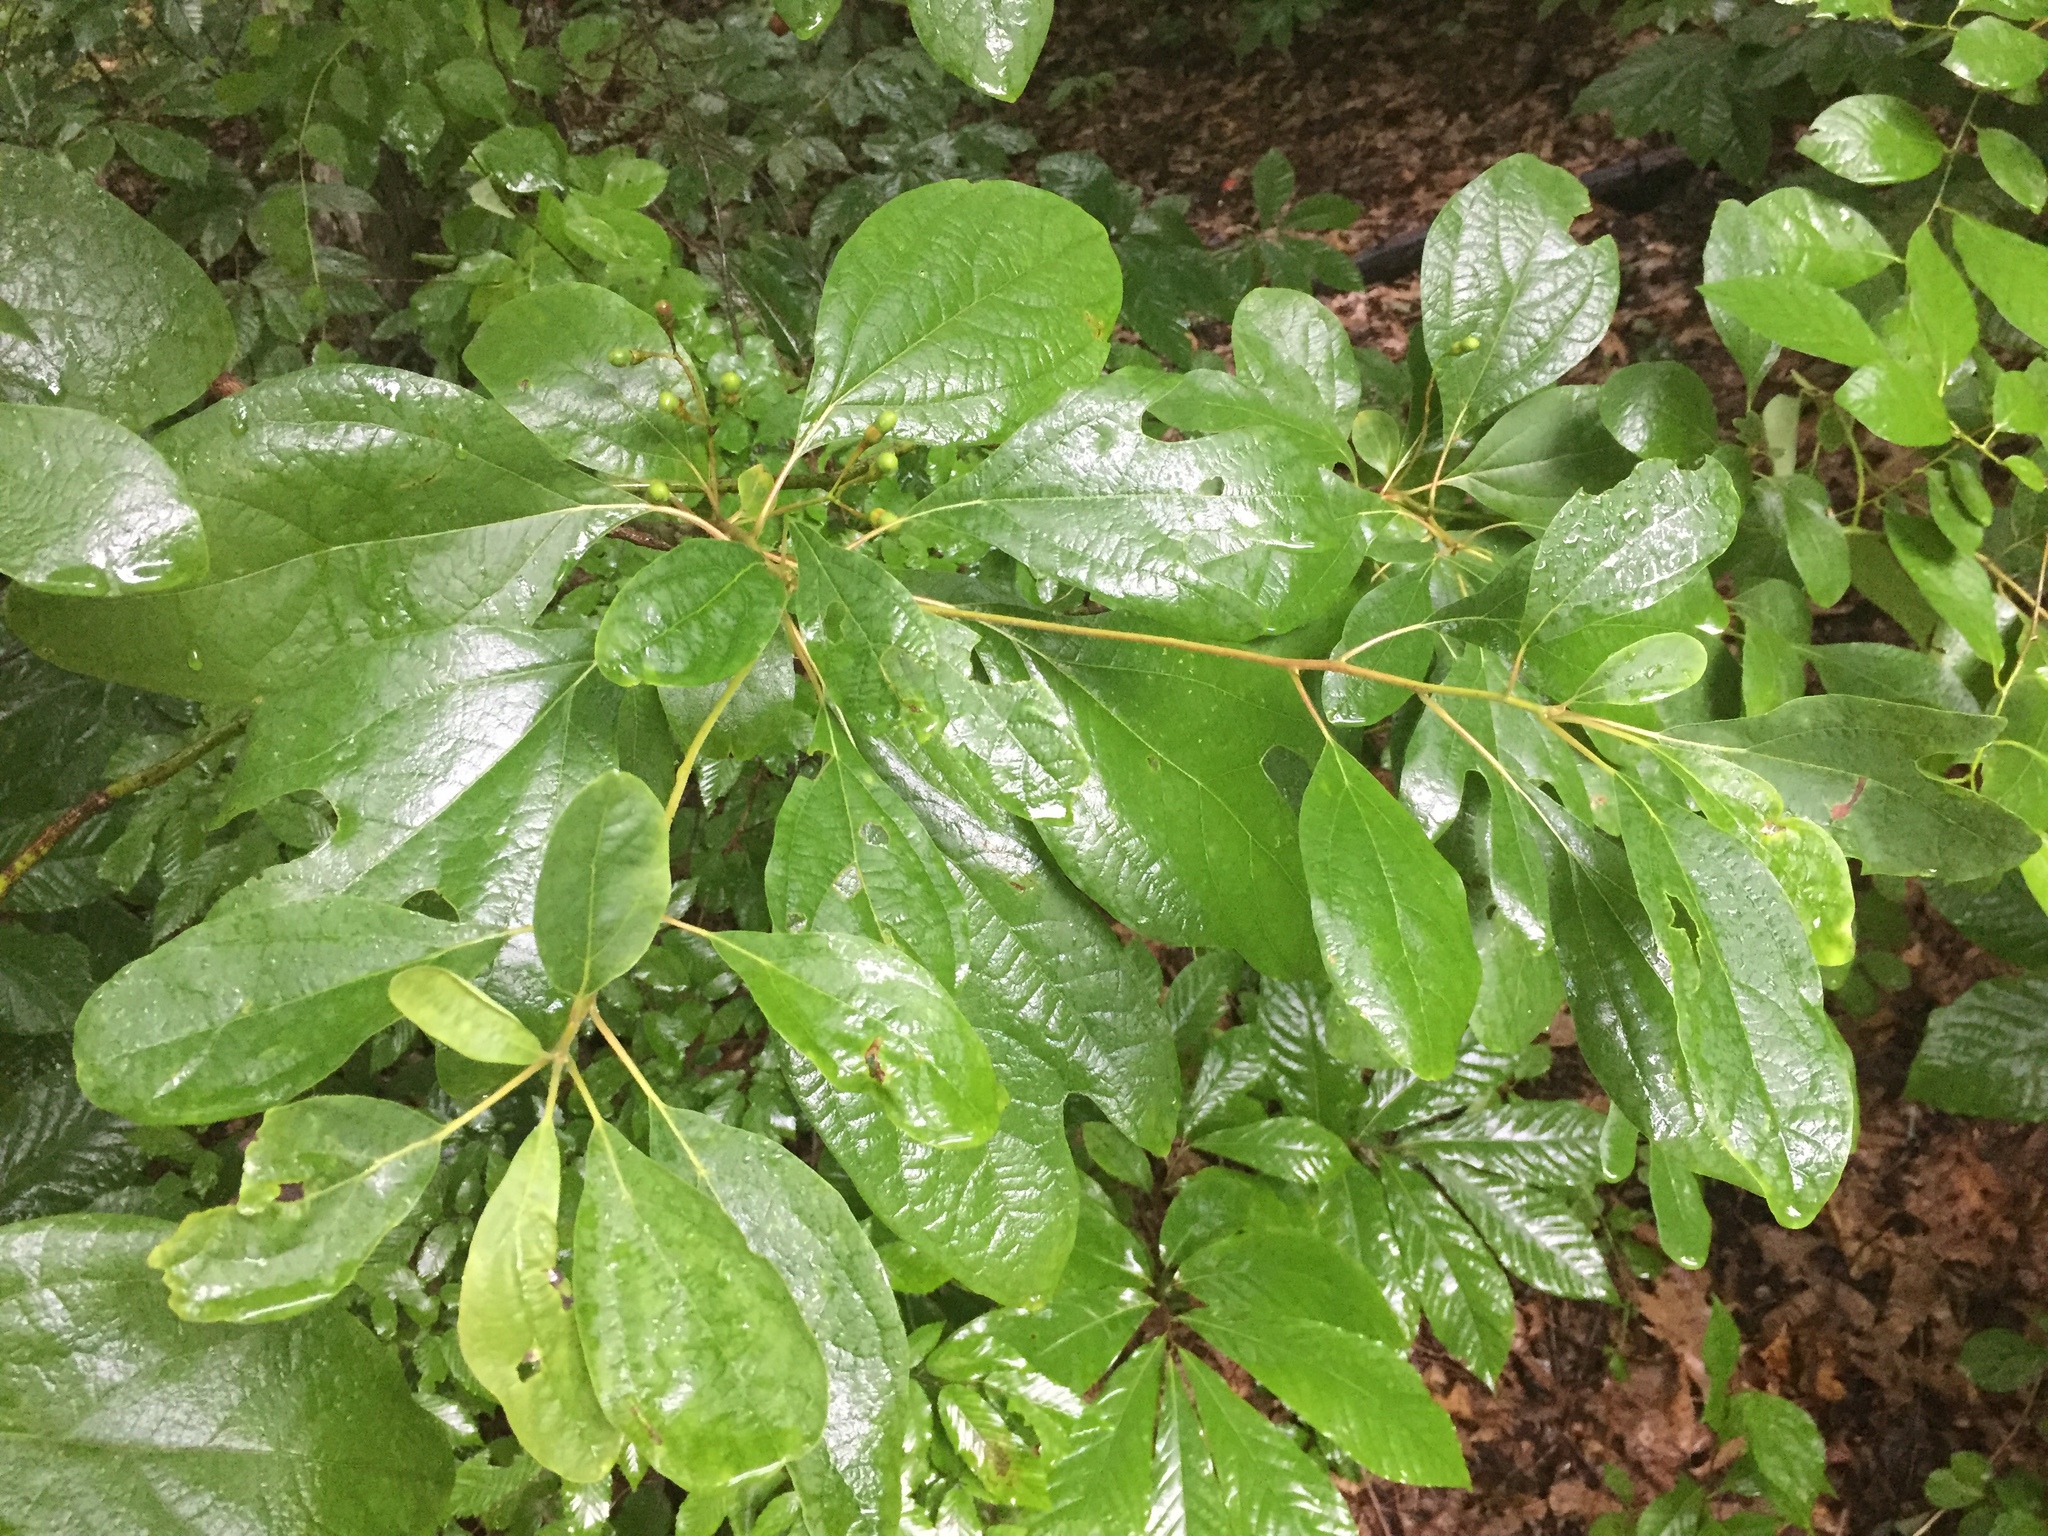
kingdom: Plantae
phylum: Tracheophyta
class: Magnoliopsida
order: Laurales
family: Lauraceae
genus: Sassafras
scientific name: Sassafras albidum
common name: Sassafras
